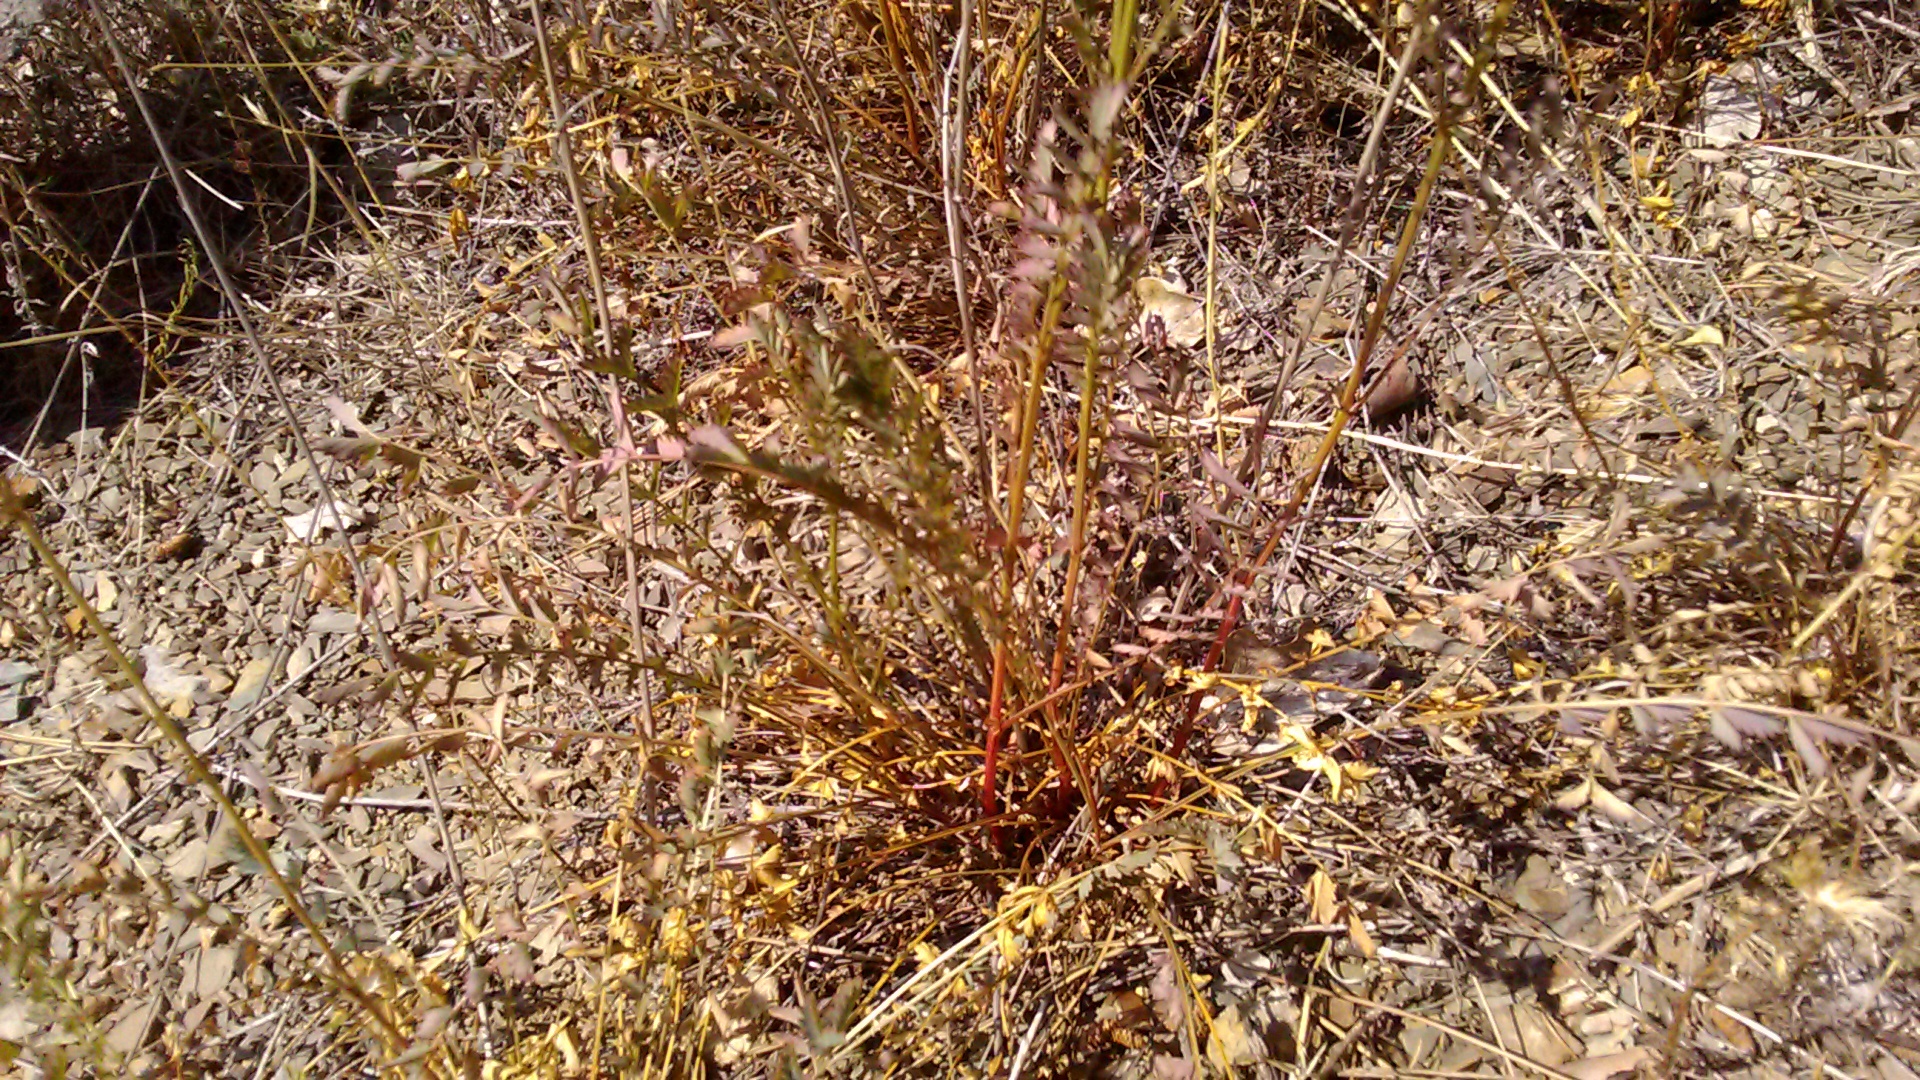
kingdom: Plantae
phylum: Tracheophyta
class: Magnoliopsida
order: Rosales
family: Rosaceae
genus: Poterium
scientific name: Poterium sanguisorba
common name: Salad burnet
